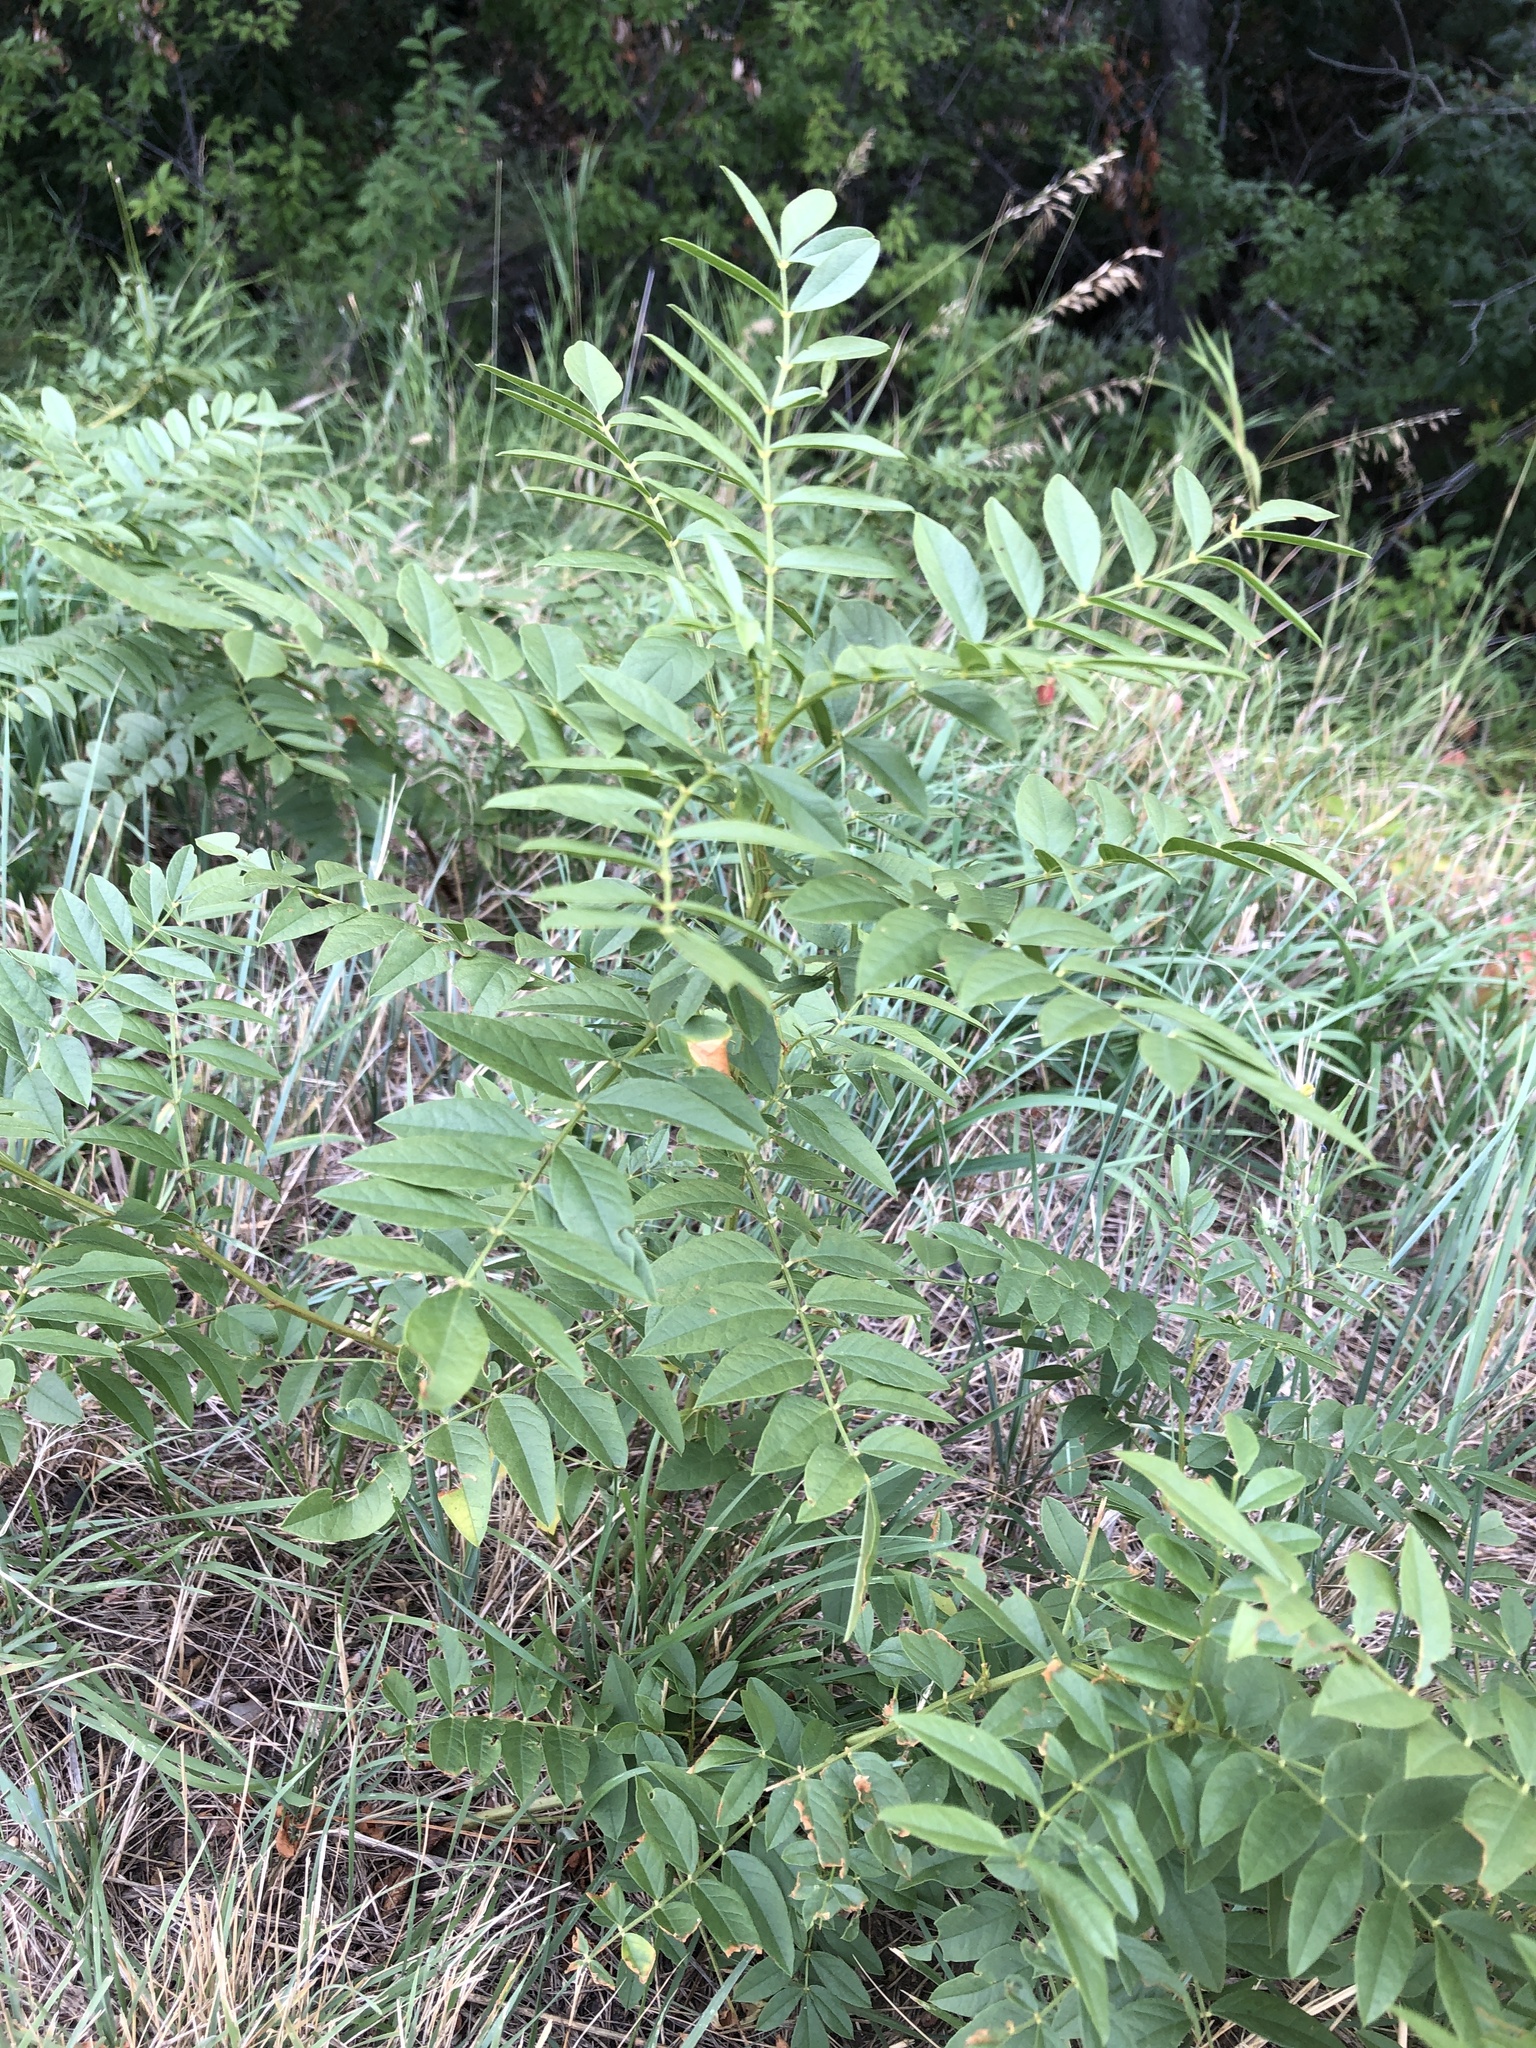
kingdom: Plantae
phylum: Tracheophyta
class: Magnoliopsida
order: Fabales
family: Fabaceae
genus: Glycyrrhiza
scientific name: Glycyrrhiza lepidota
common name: American liquorice
